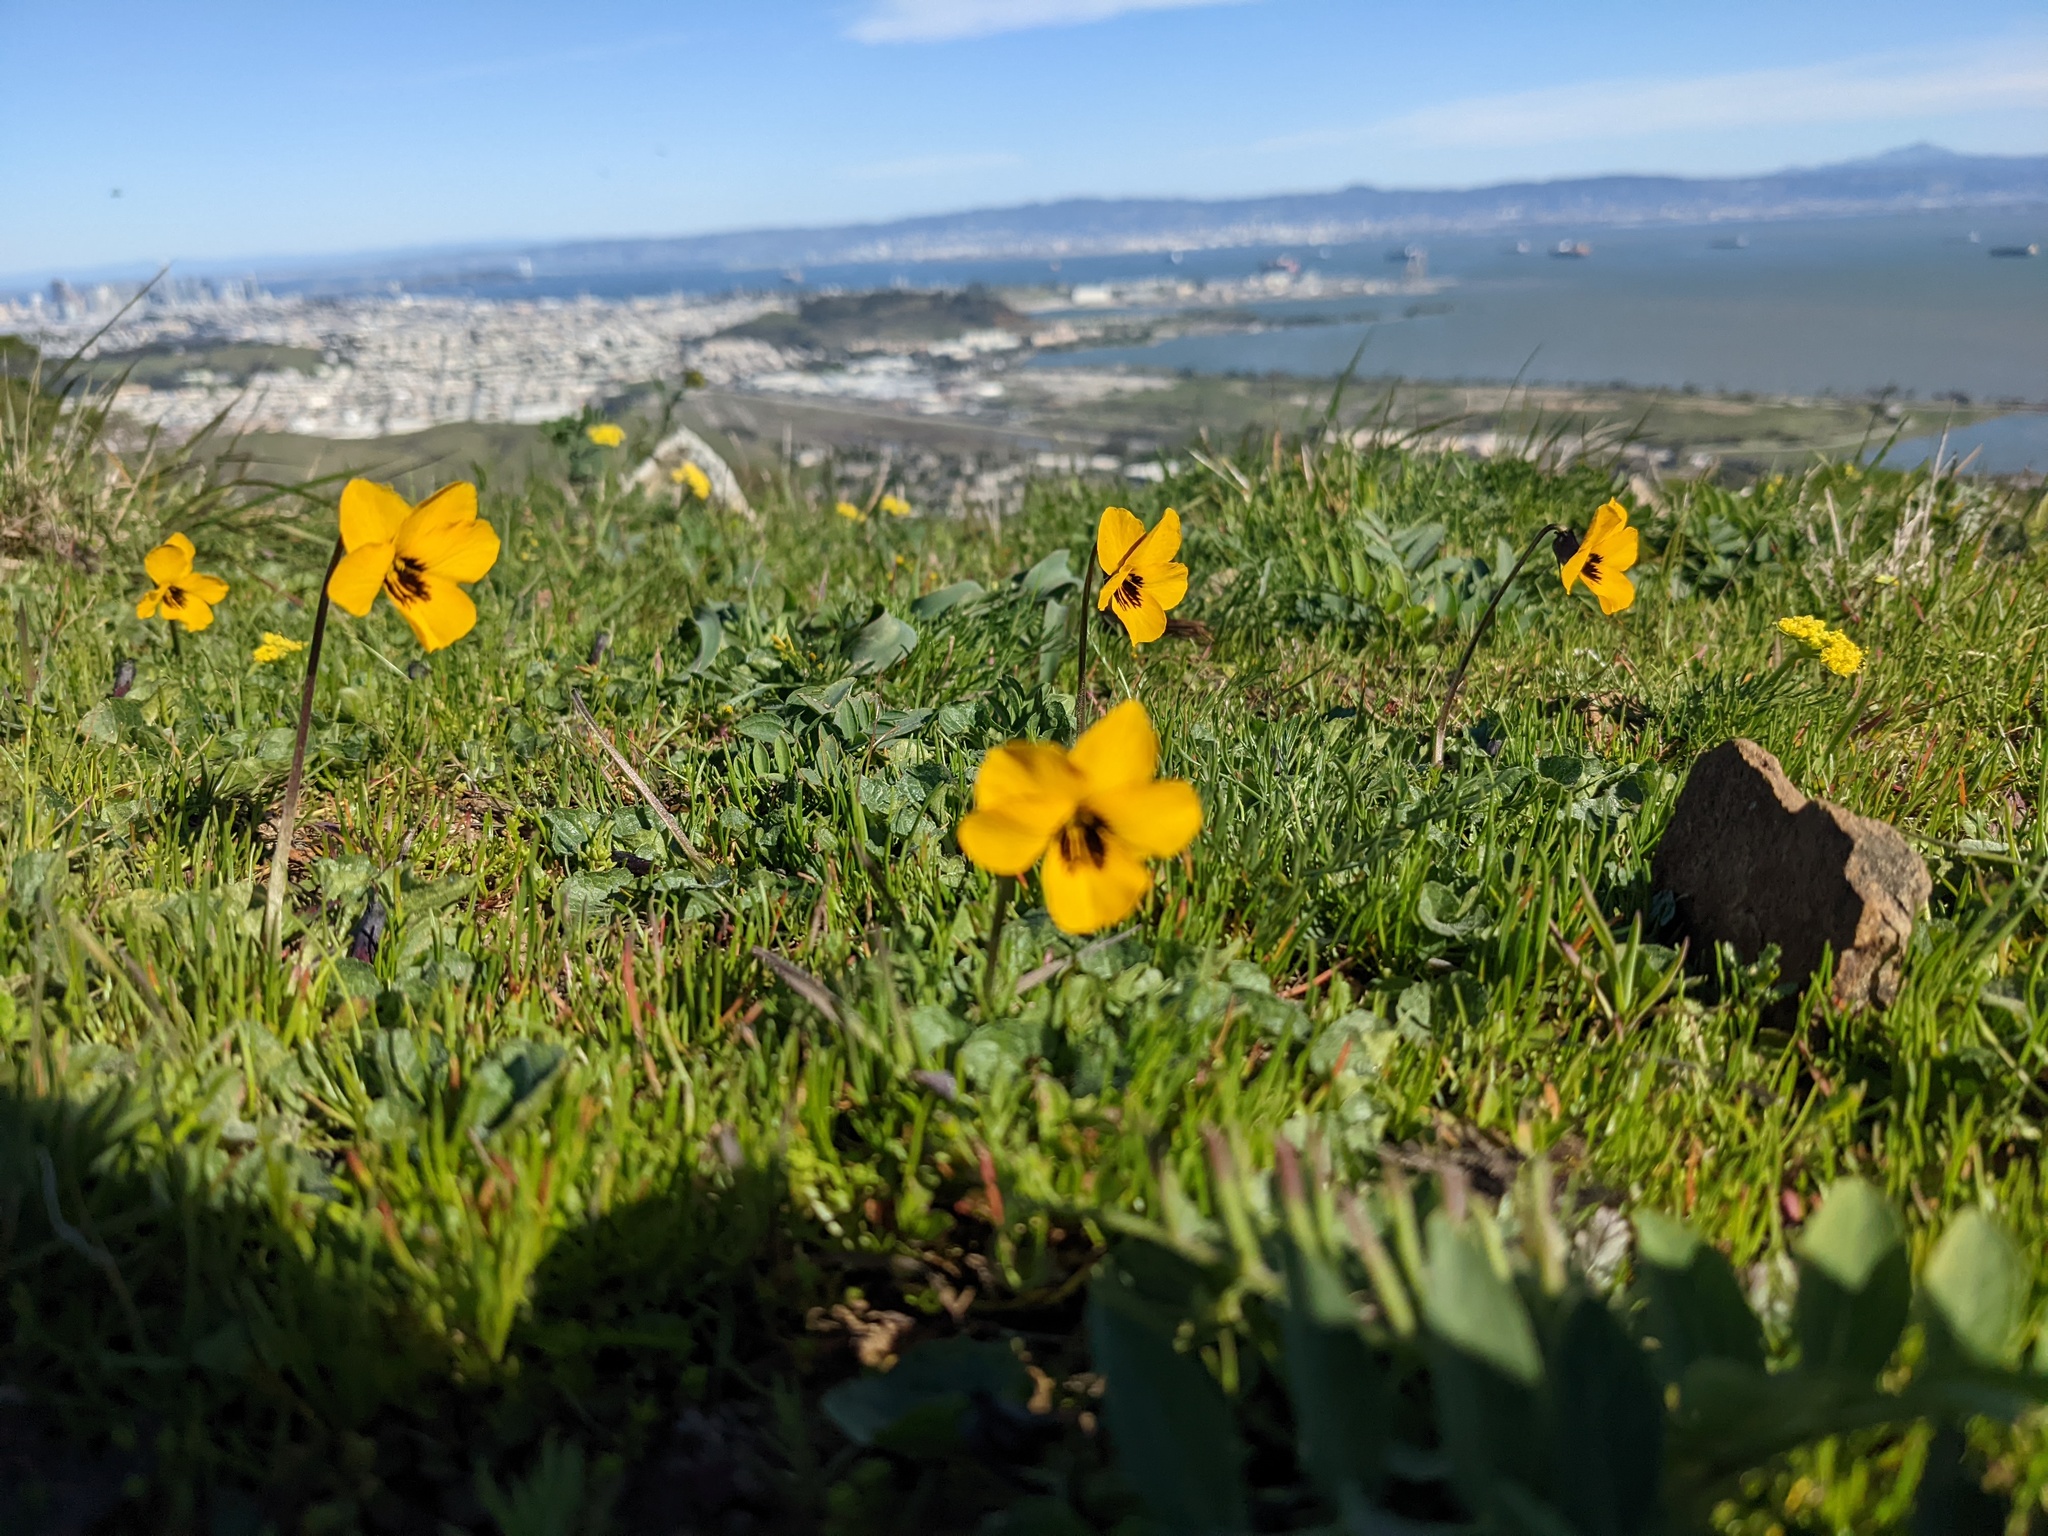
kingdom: Plantae
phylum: Tracheophyta
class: Magnoliopsida
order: Malpighiales
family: Violaceae
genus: Viola
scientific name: Viola pedunculata
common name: California golden violet
